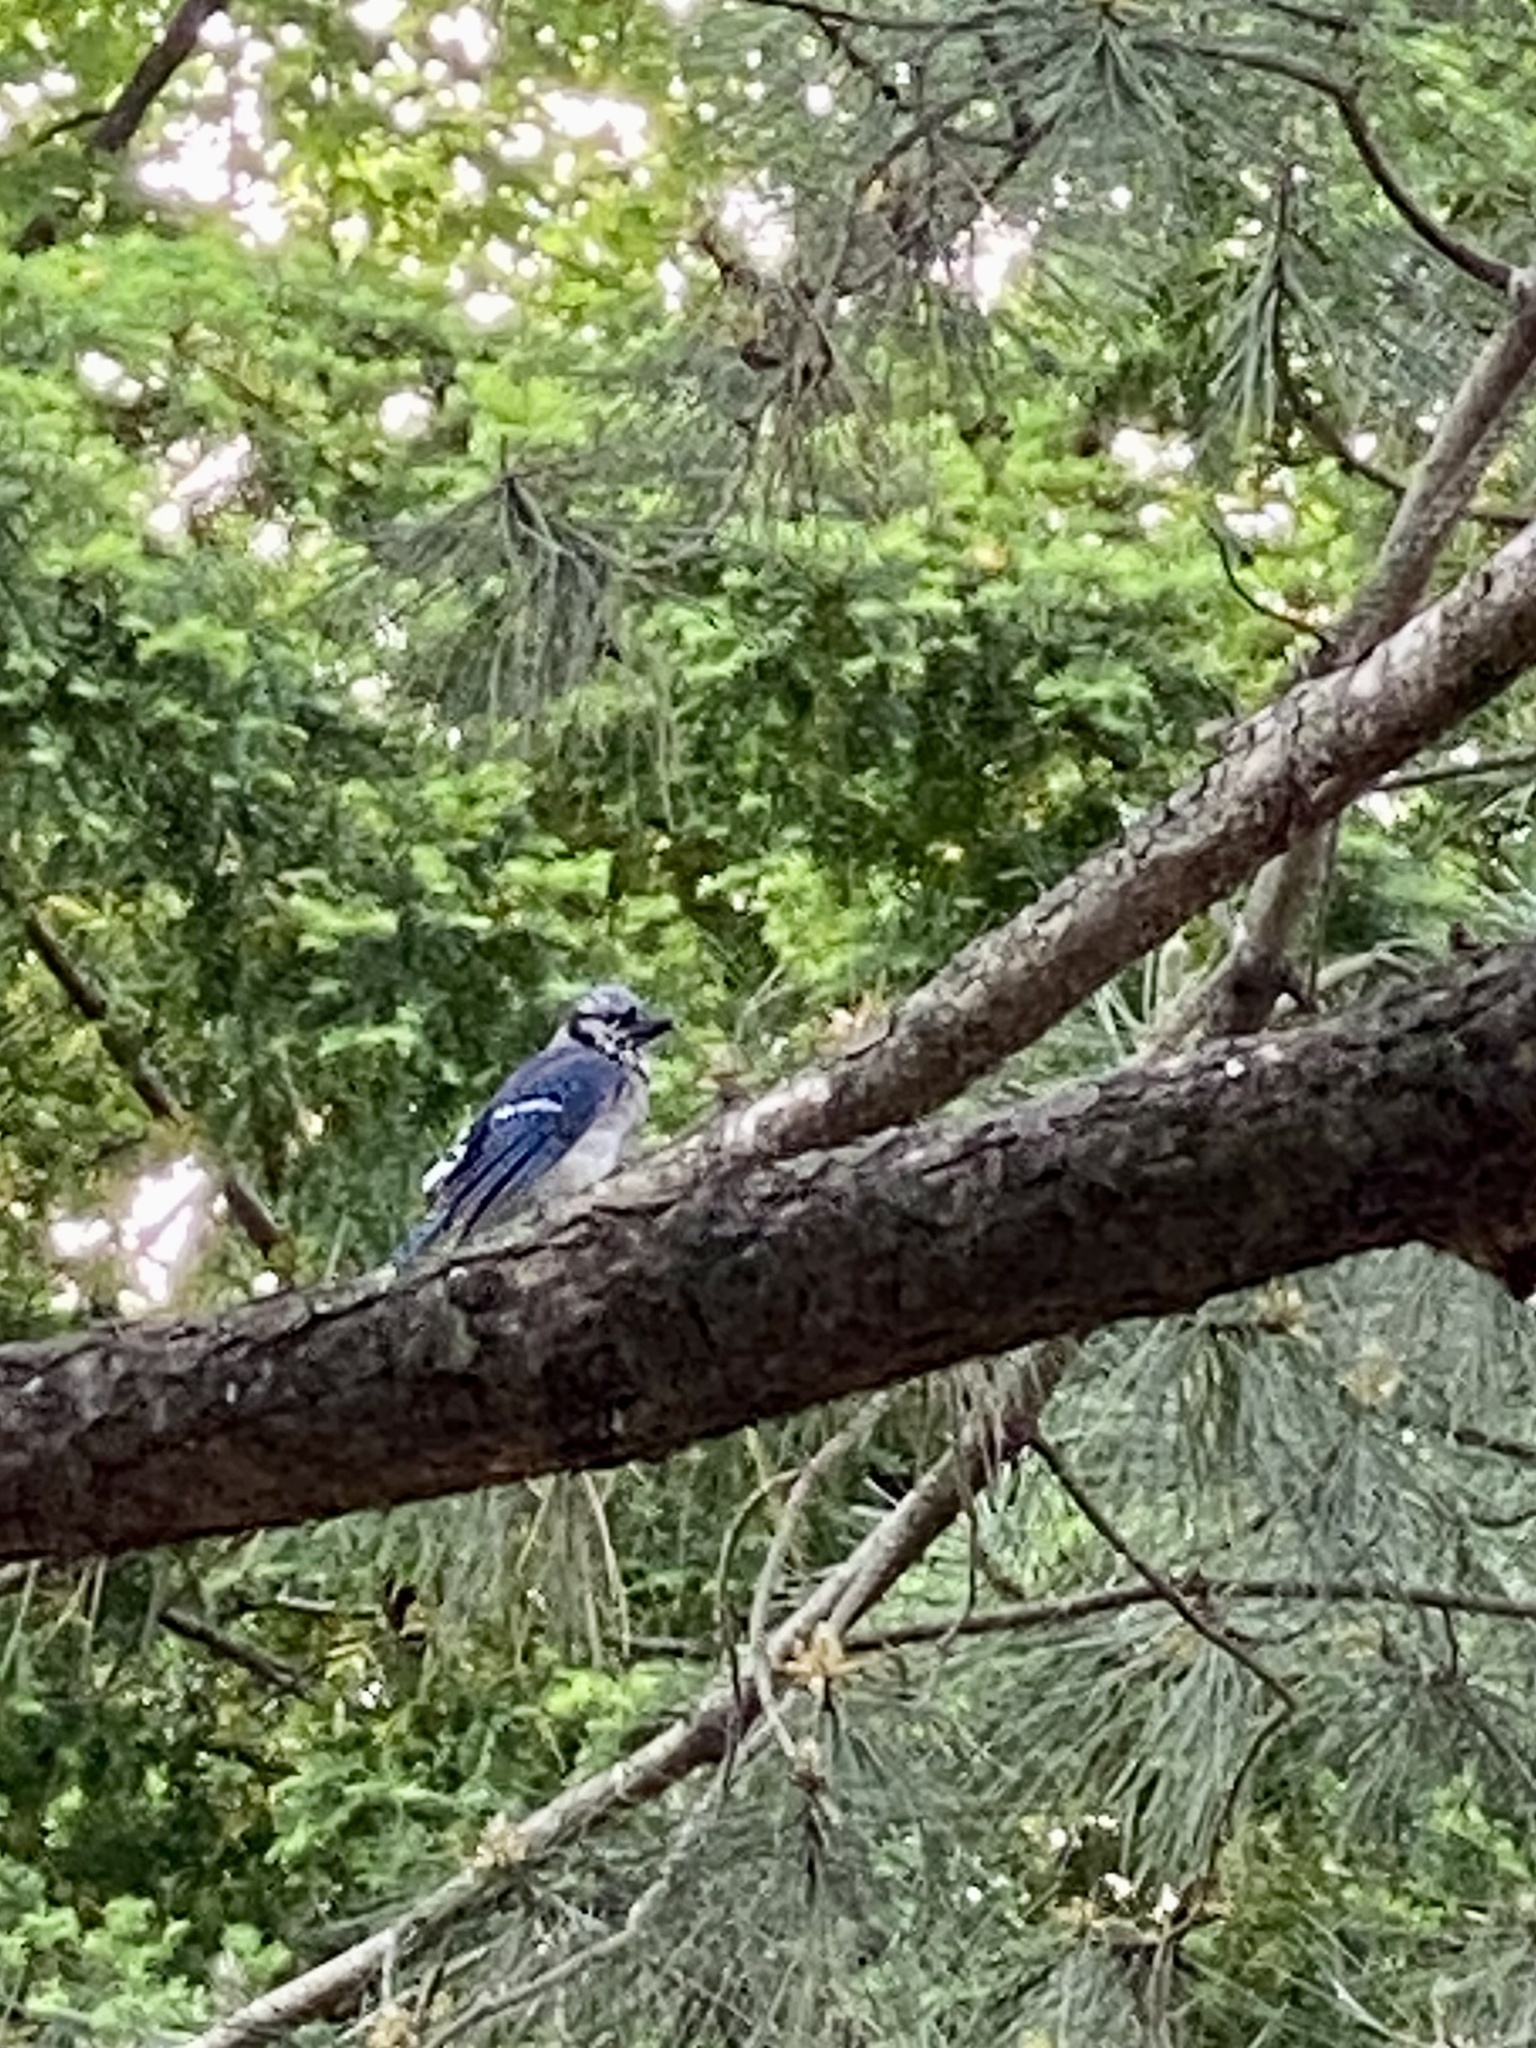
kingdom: Animalia
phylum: Chordata
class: Aves
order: Passeriformes
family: Corvidae
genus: Cyanocitta
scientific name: Cyanocitta cristata
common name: Blue jay
